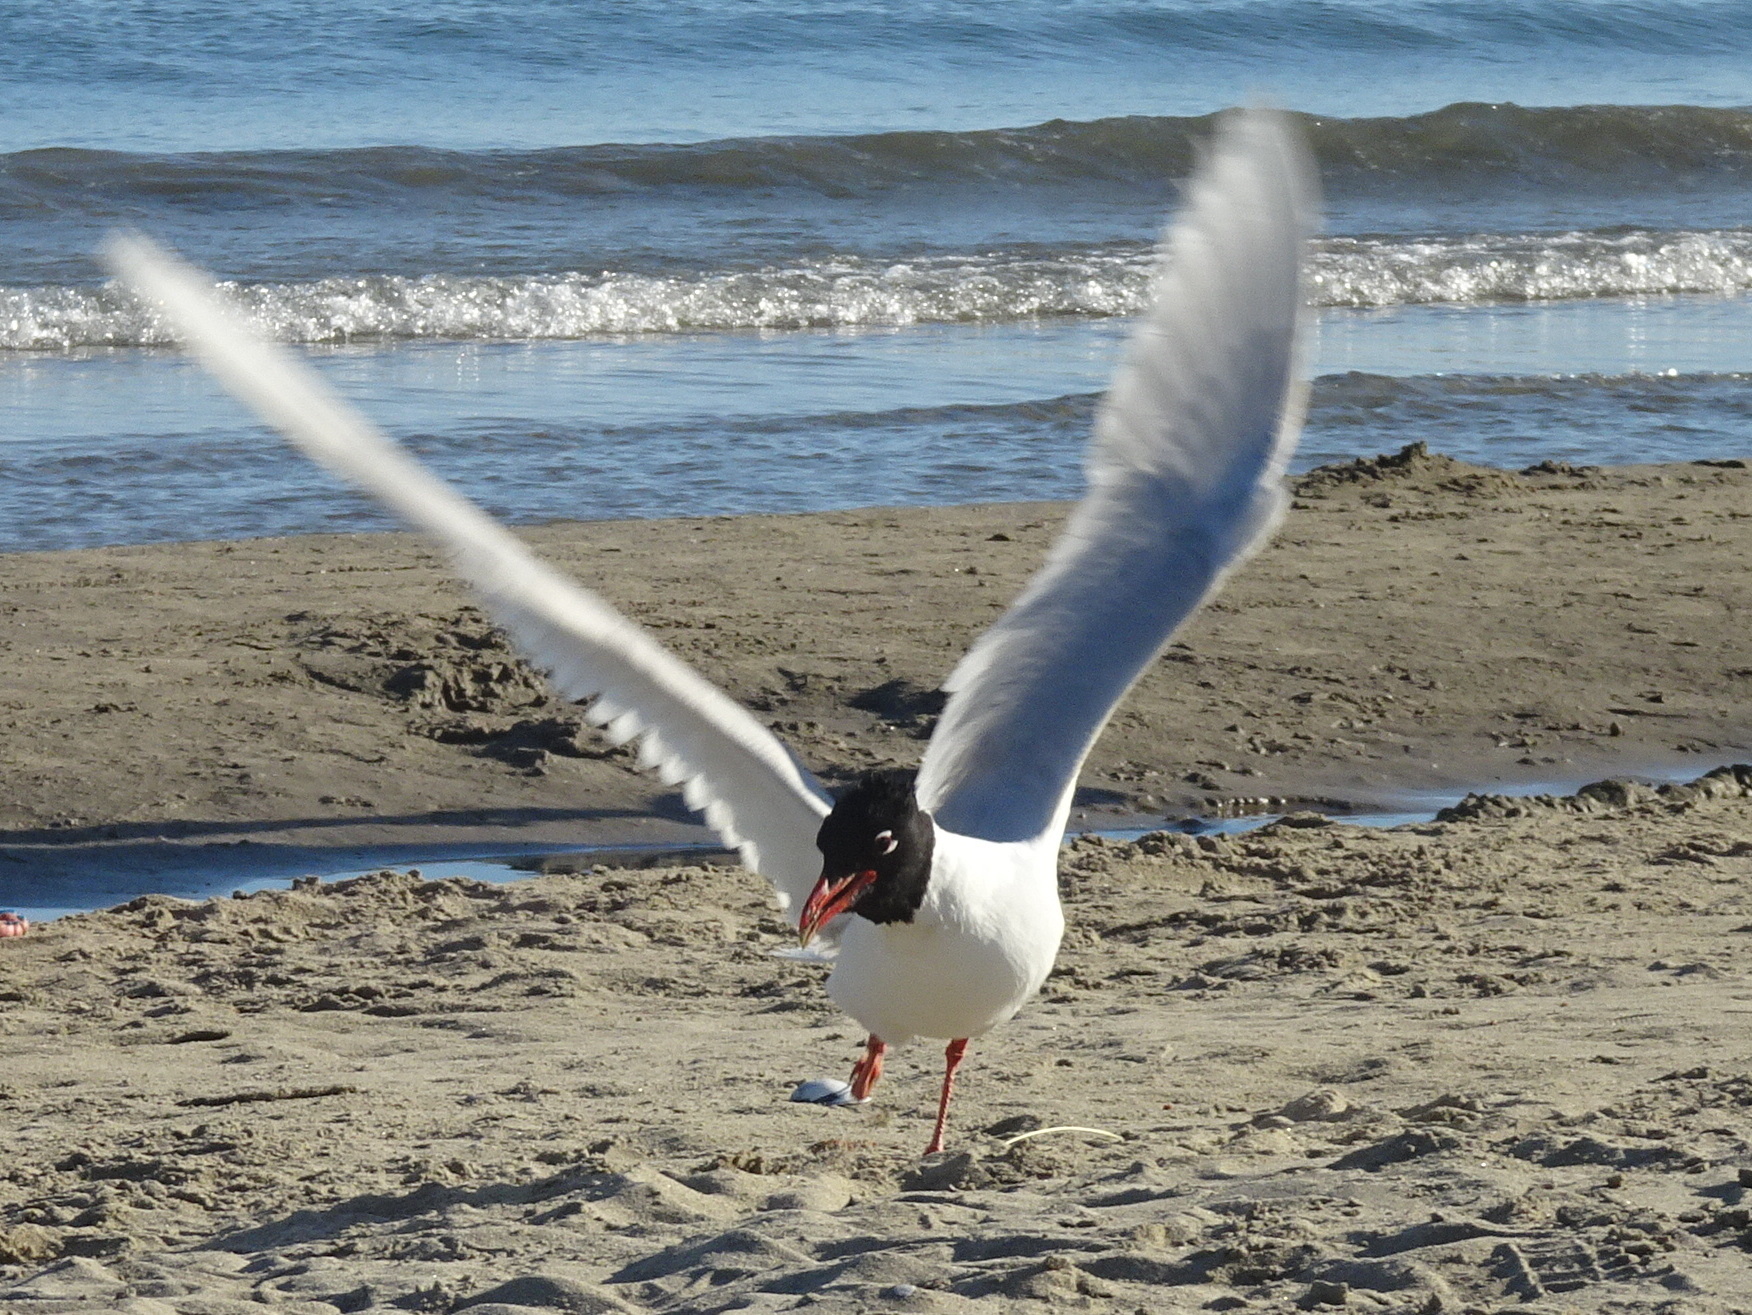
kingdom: Animalia
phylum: Chordata
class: Aves
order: Charadriiformes
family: Laridae
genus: Ichthyaetus
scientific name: Ichthyaetus melanocephalus
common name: Mediterranean gull
